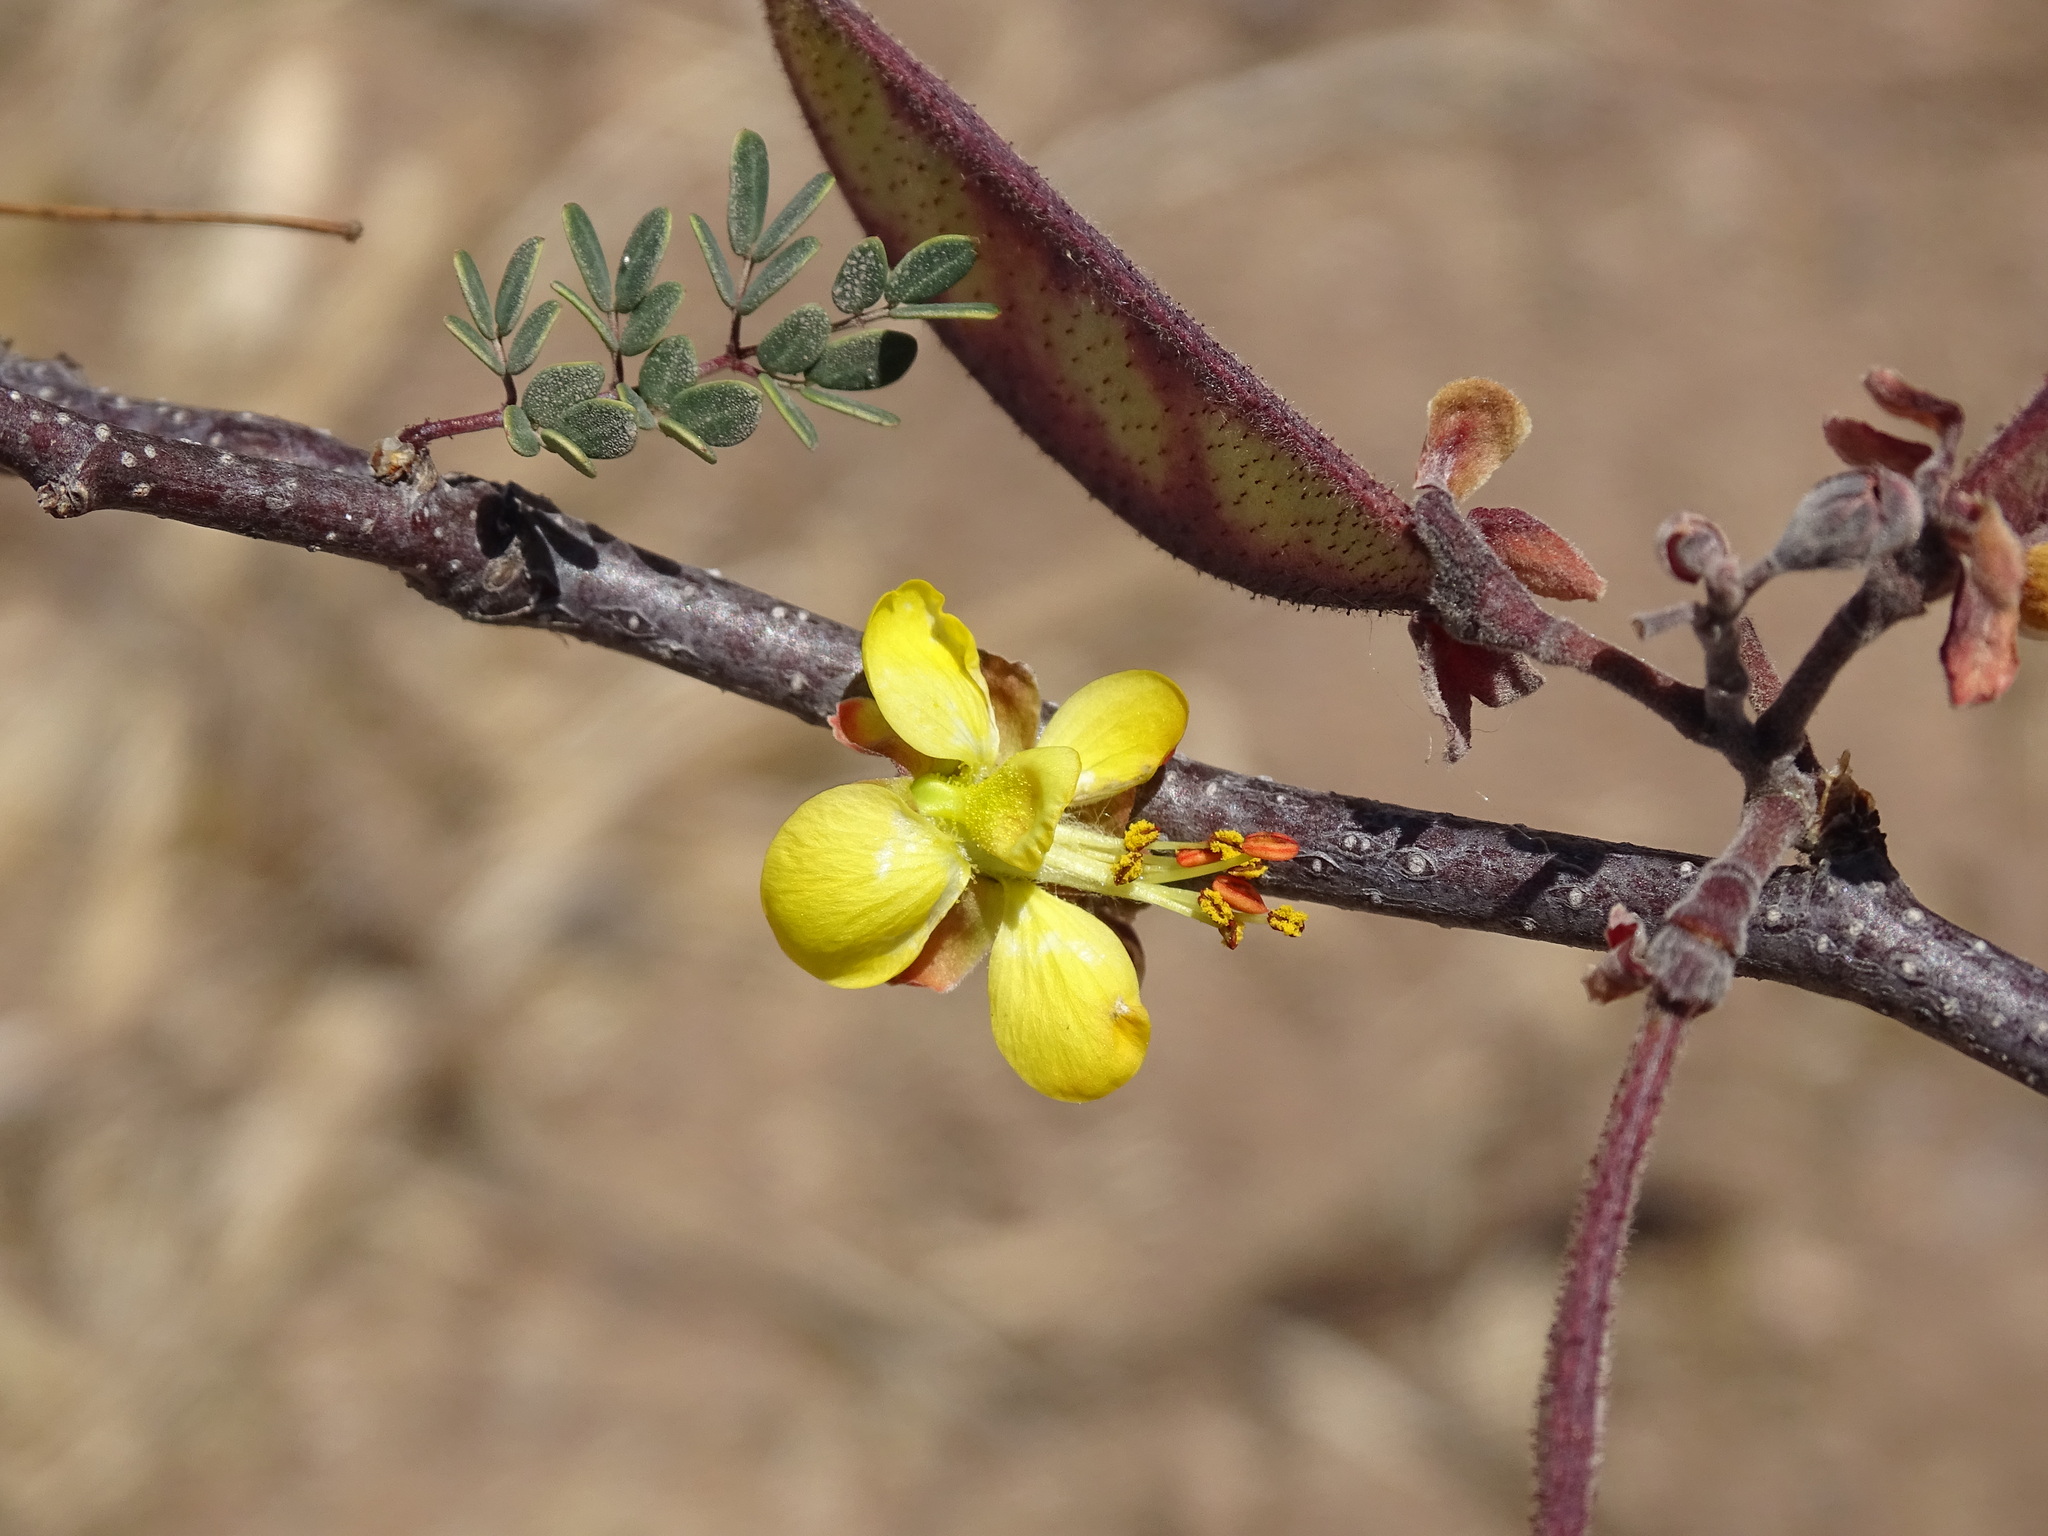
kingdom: Plantae
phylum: Tracheophyta
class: Magnoliopsida
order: Fabales
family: Fabaceae
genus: Erythrostemon
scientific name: Erythrostemon palmeri
